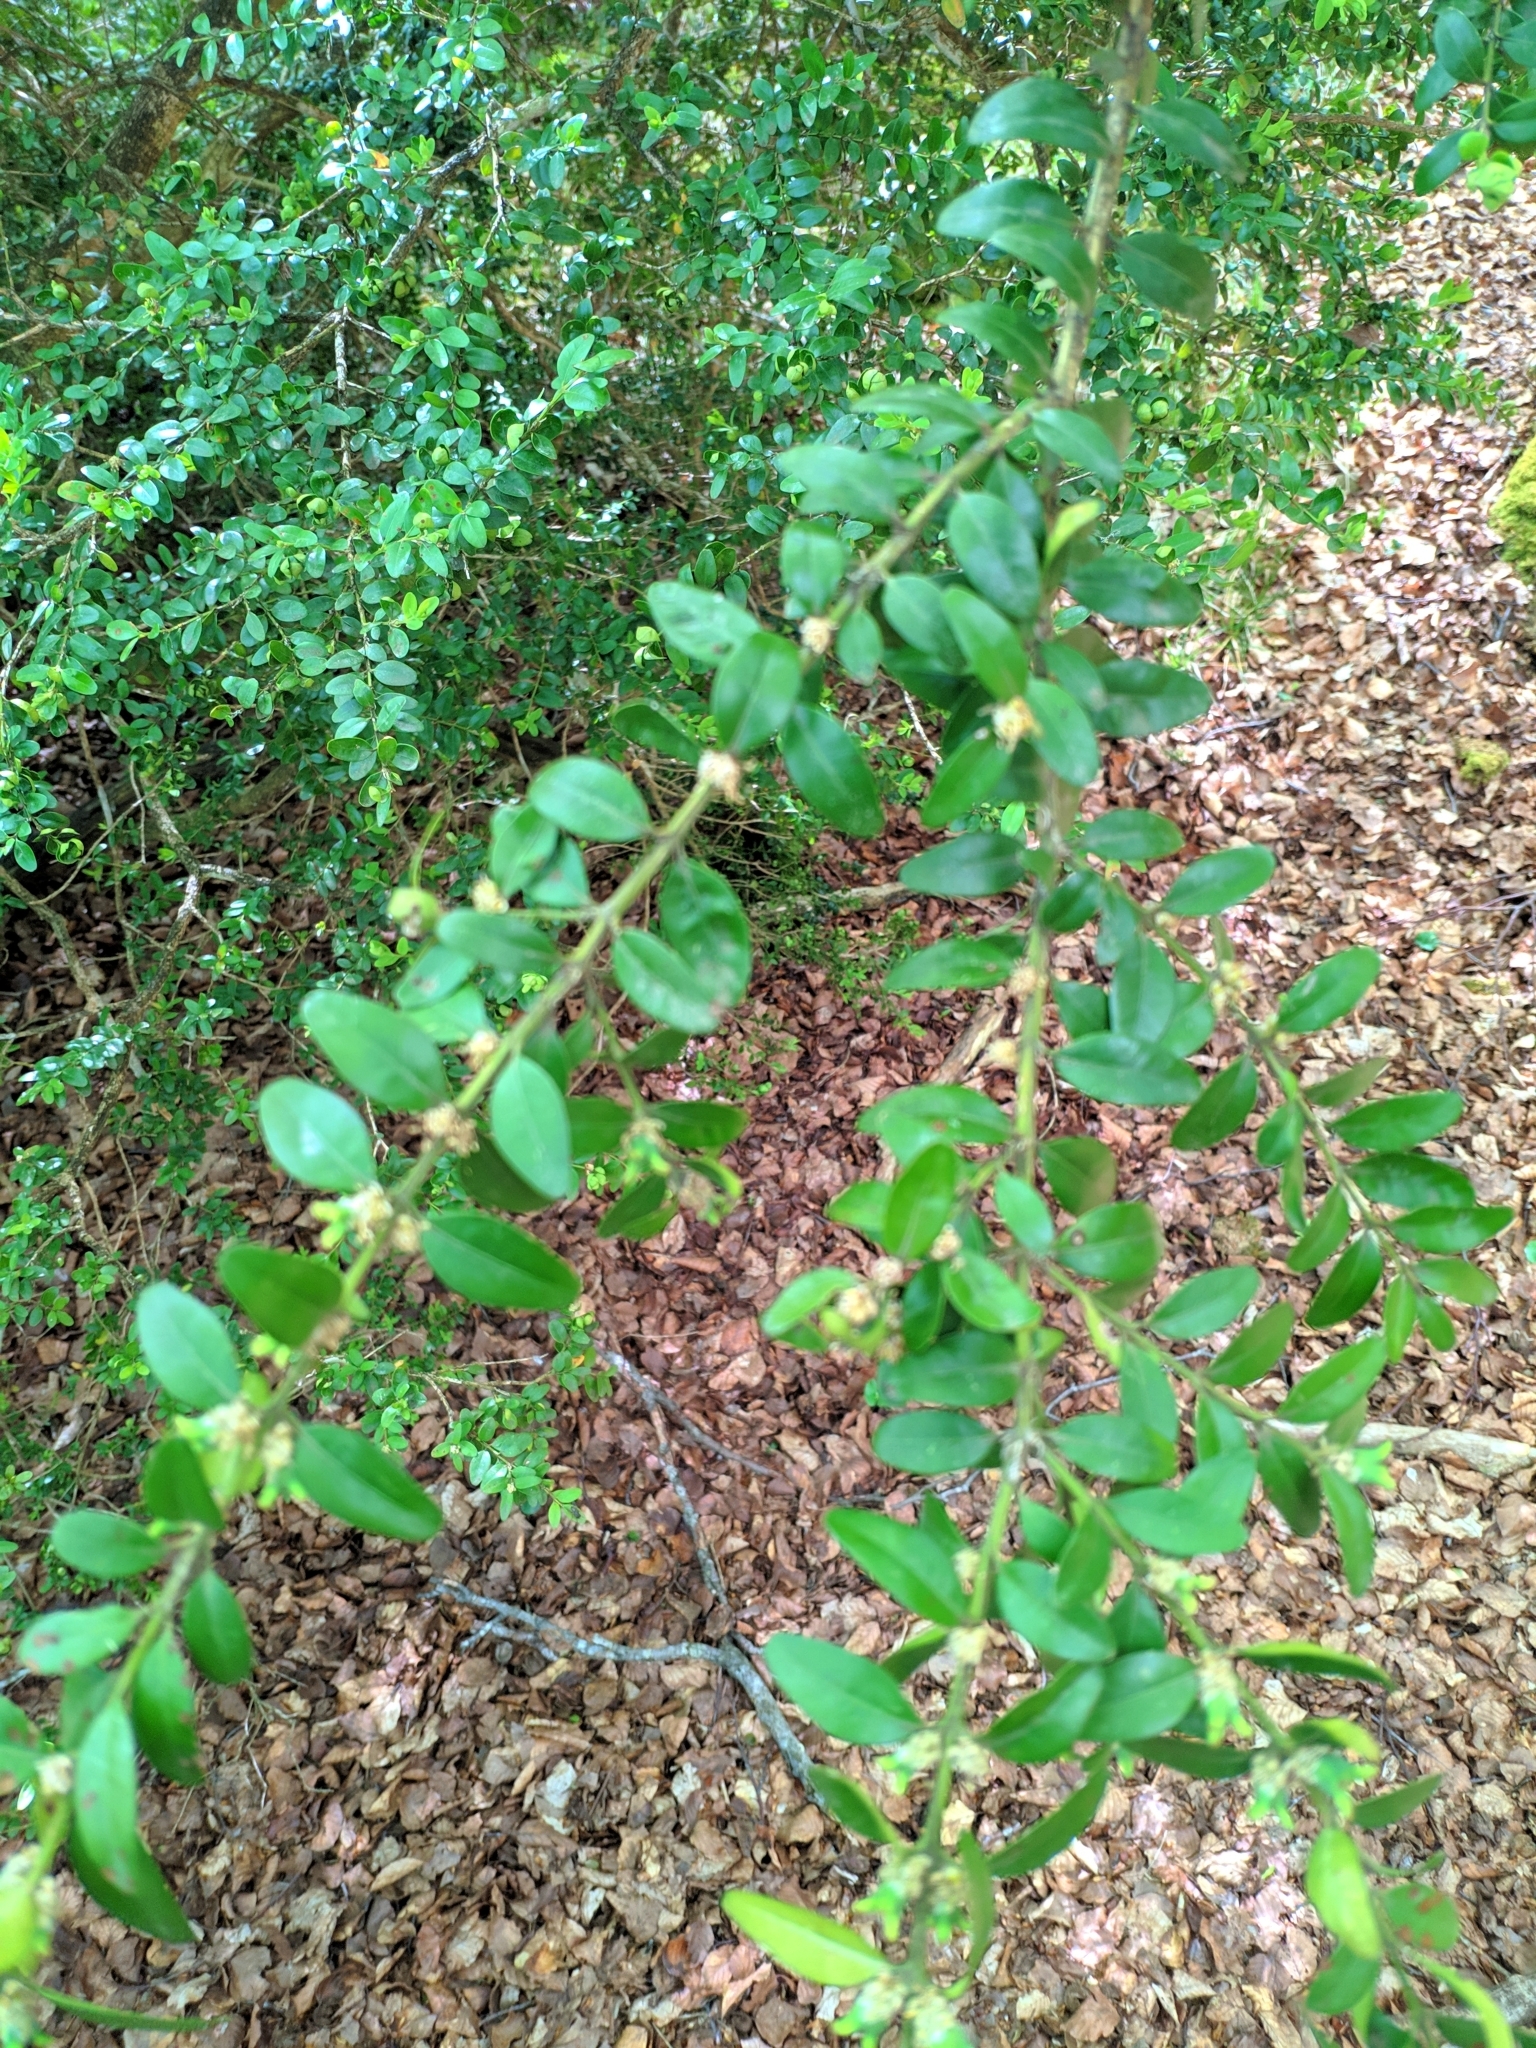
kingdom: Plantae
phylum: Tracheophyta
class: Magnoliopsida
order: Buxales
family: Buxaceae
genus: Buxus
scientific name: Buxus sempervirens
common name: Box
